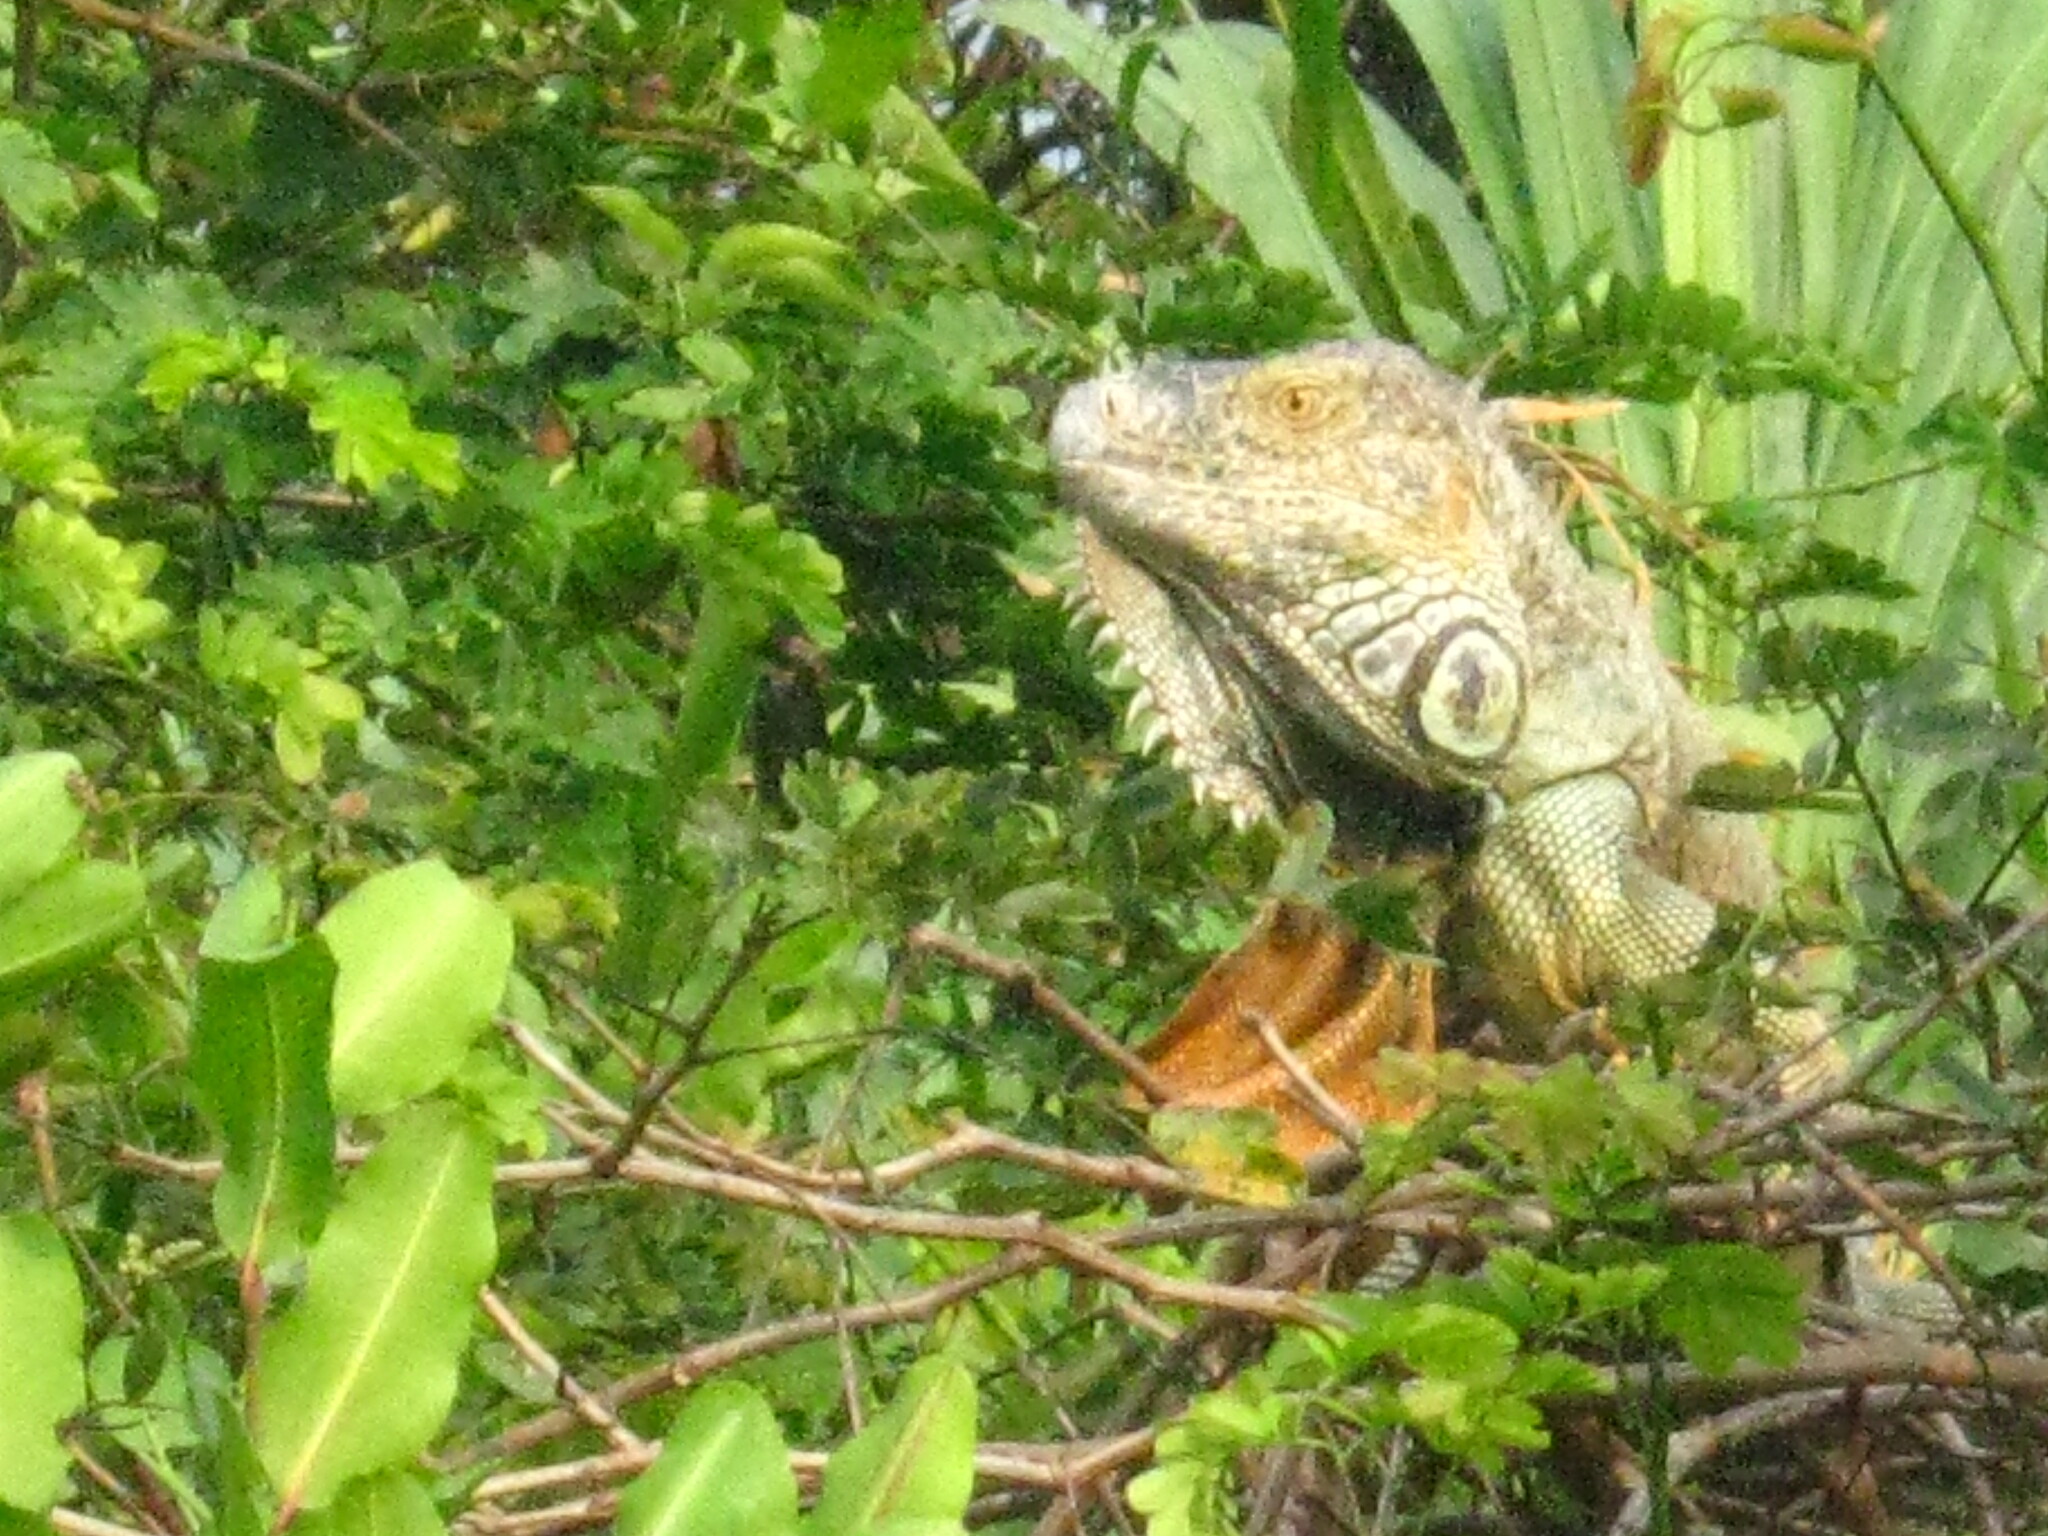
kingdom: Animalia
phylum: Chordata
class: Squamata
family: Iguanidae
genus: Iguana
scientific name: Iguana iguana
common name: Green iguana
